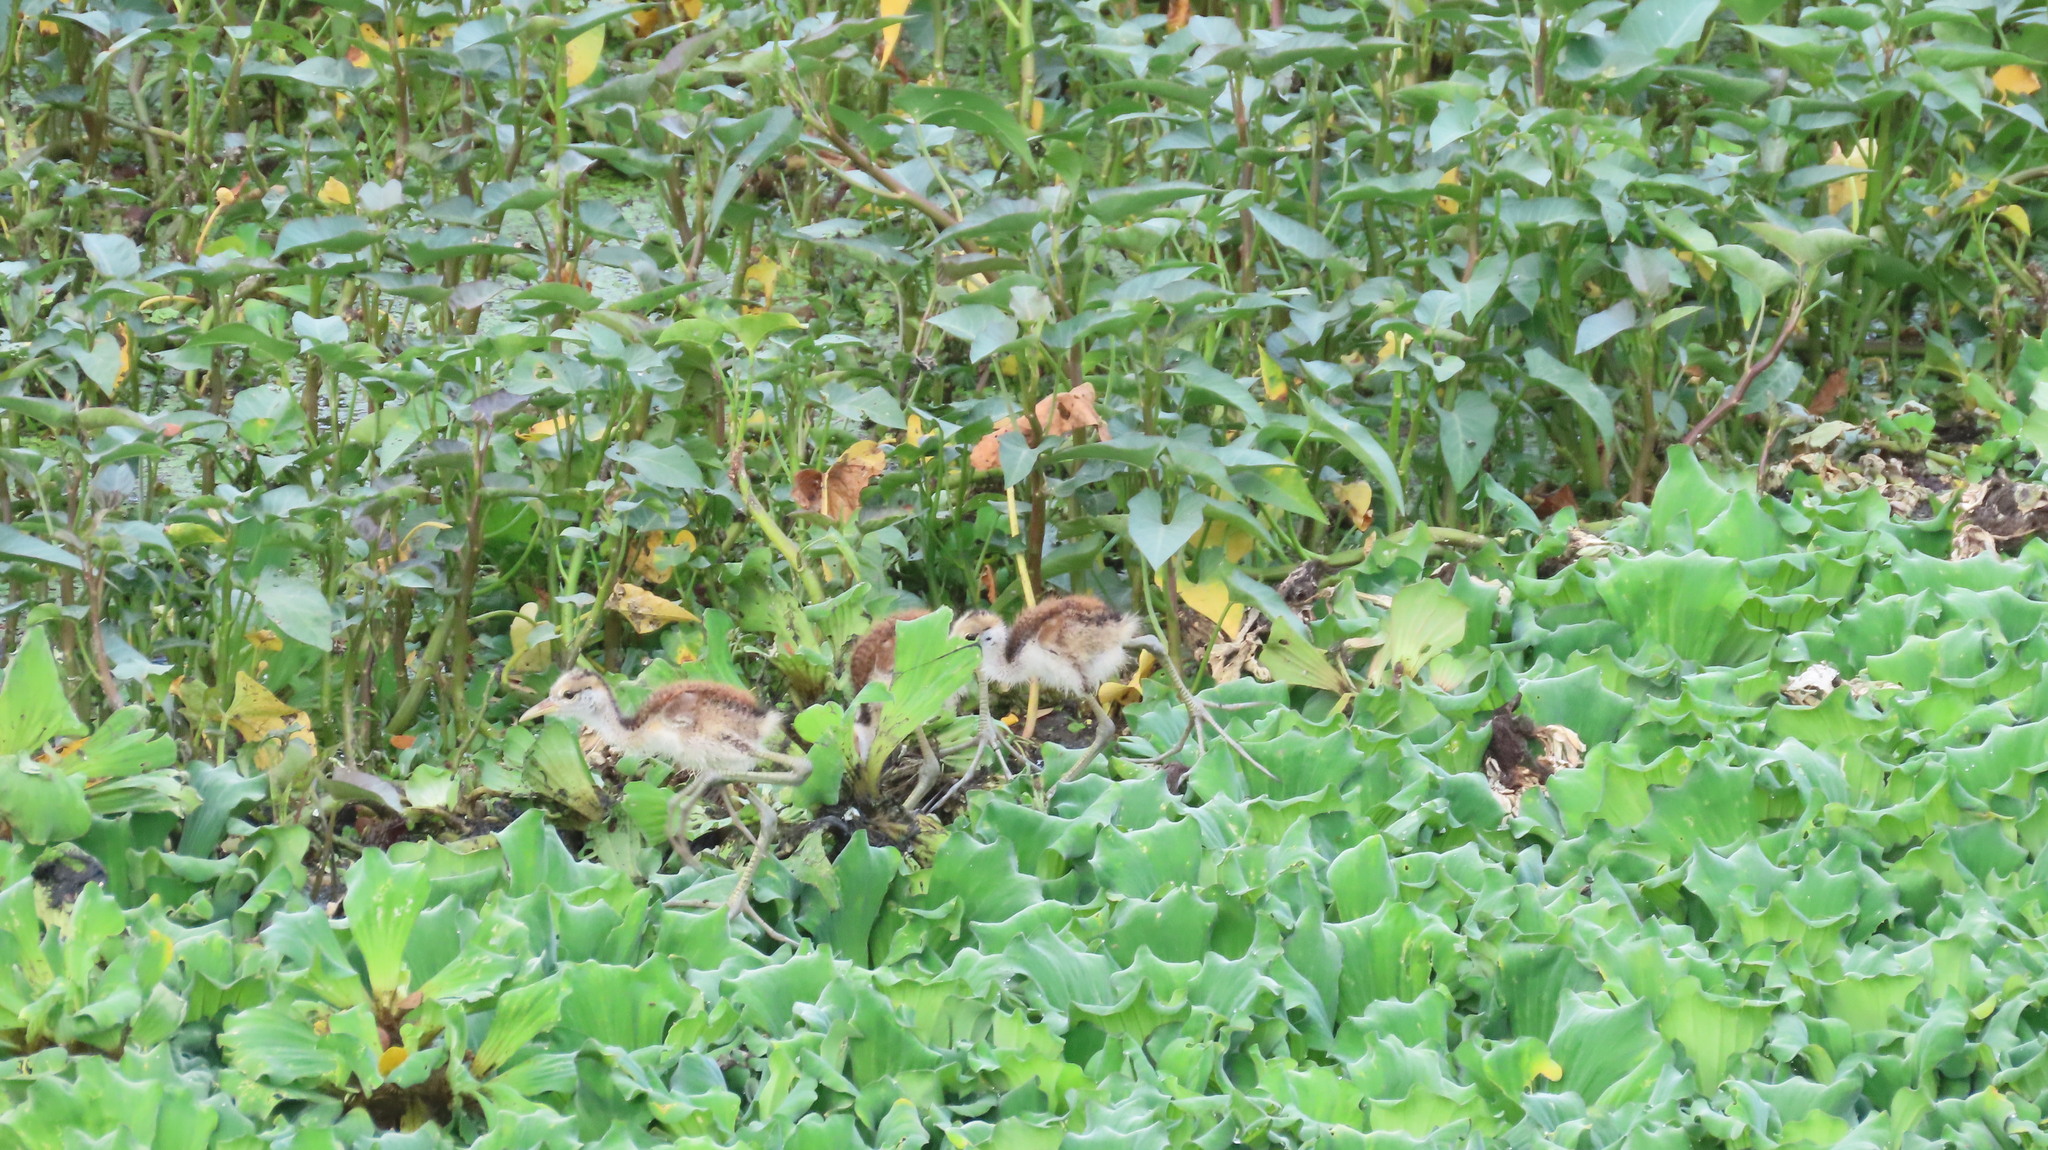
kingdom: Animalia
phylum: Chordata
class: Aves
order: Charadriiformes
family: Jacanidae
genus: Metopidius
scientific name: Metopidius indicus
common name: Bronze-winged jacana
